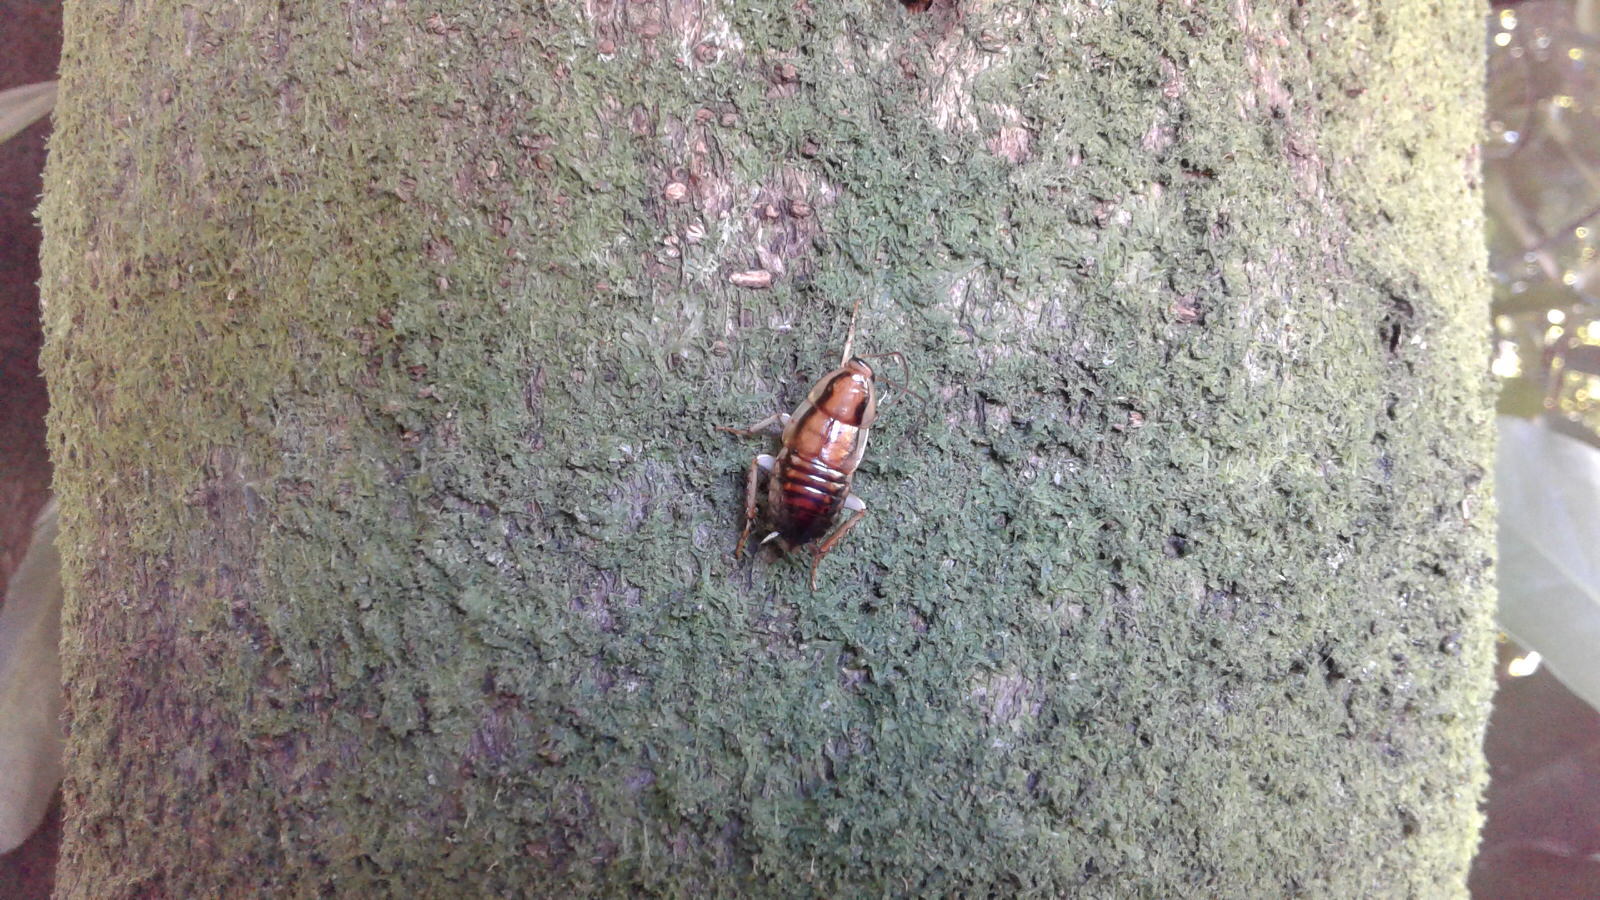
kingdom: Animalia
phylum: Arthropoda
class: Insecta
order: Blattodea
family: Blattidae
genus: Celatoblatta
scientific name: Celatoblatta undulivitta
